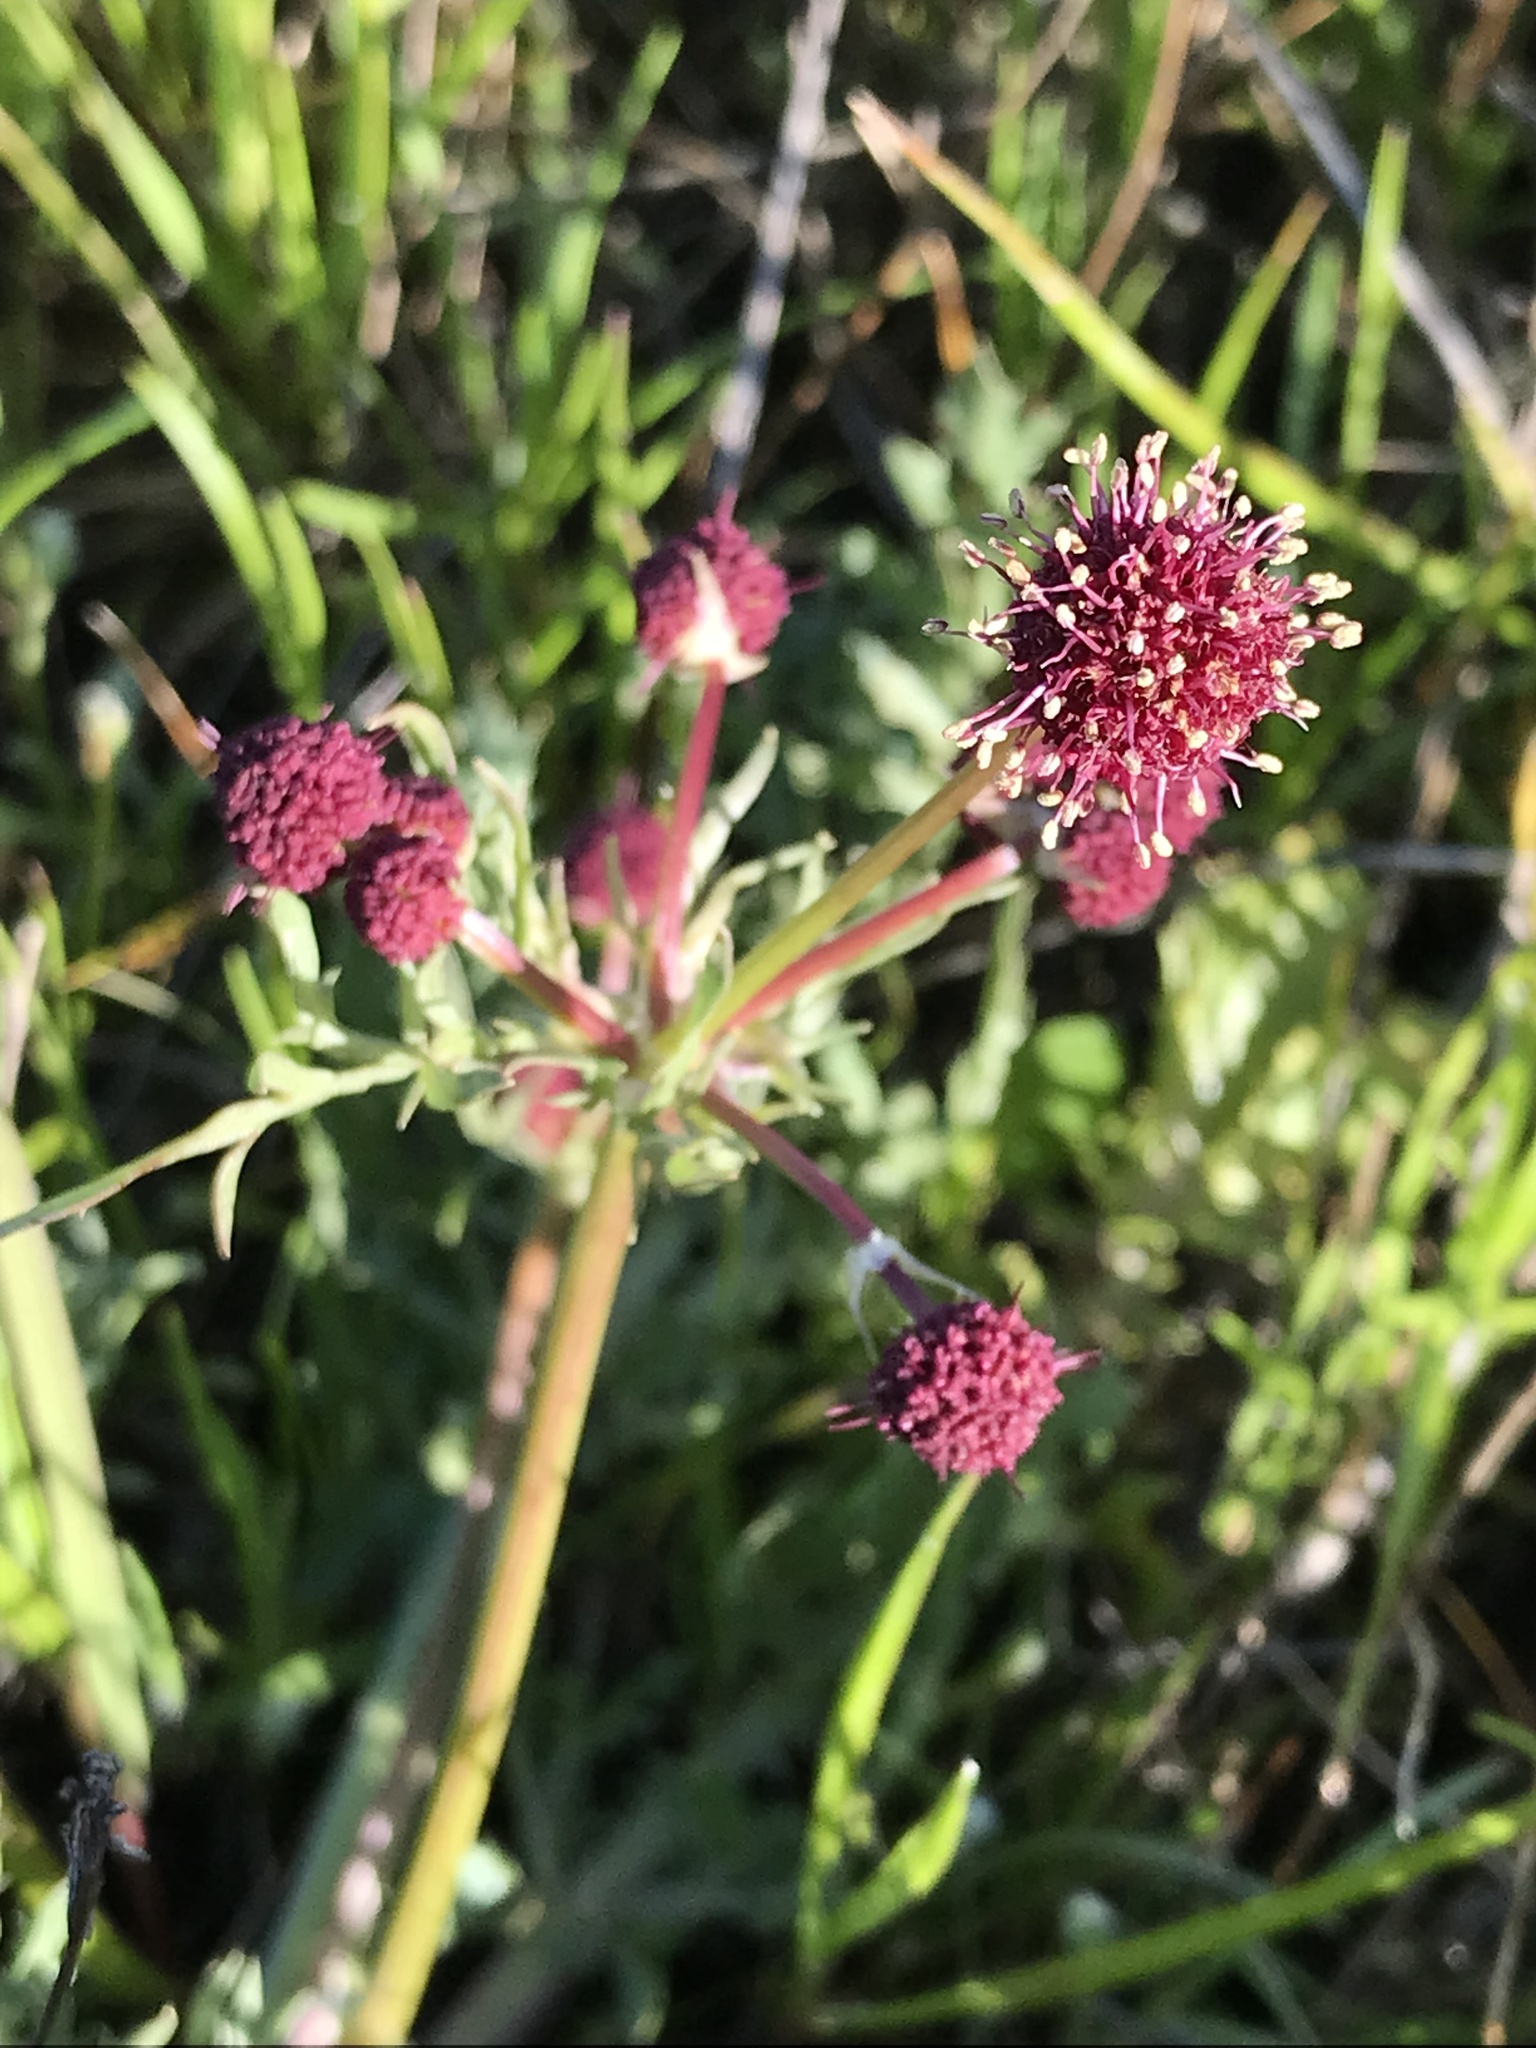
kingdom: Plantae
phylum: Tracheophyta
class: Magnoliopsida
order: Apiales
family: Apiaceae
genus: Sanicula
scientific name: Sanicula bipinnatifida
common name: Shoe-buttons
